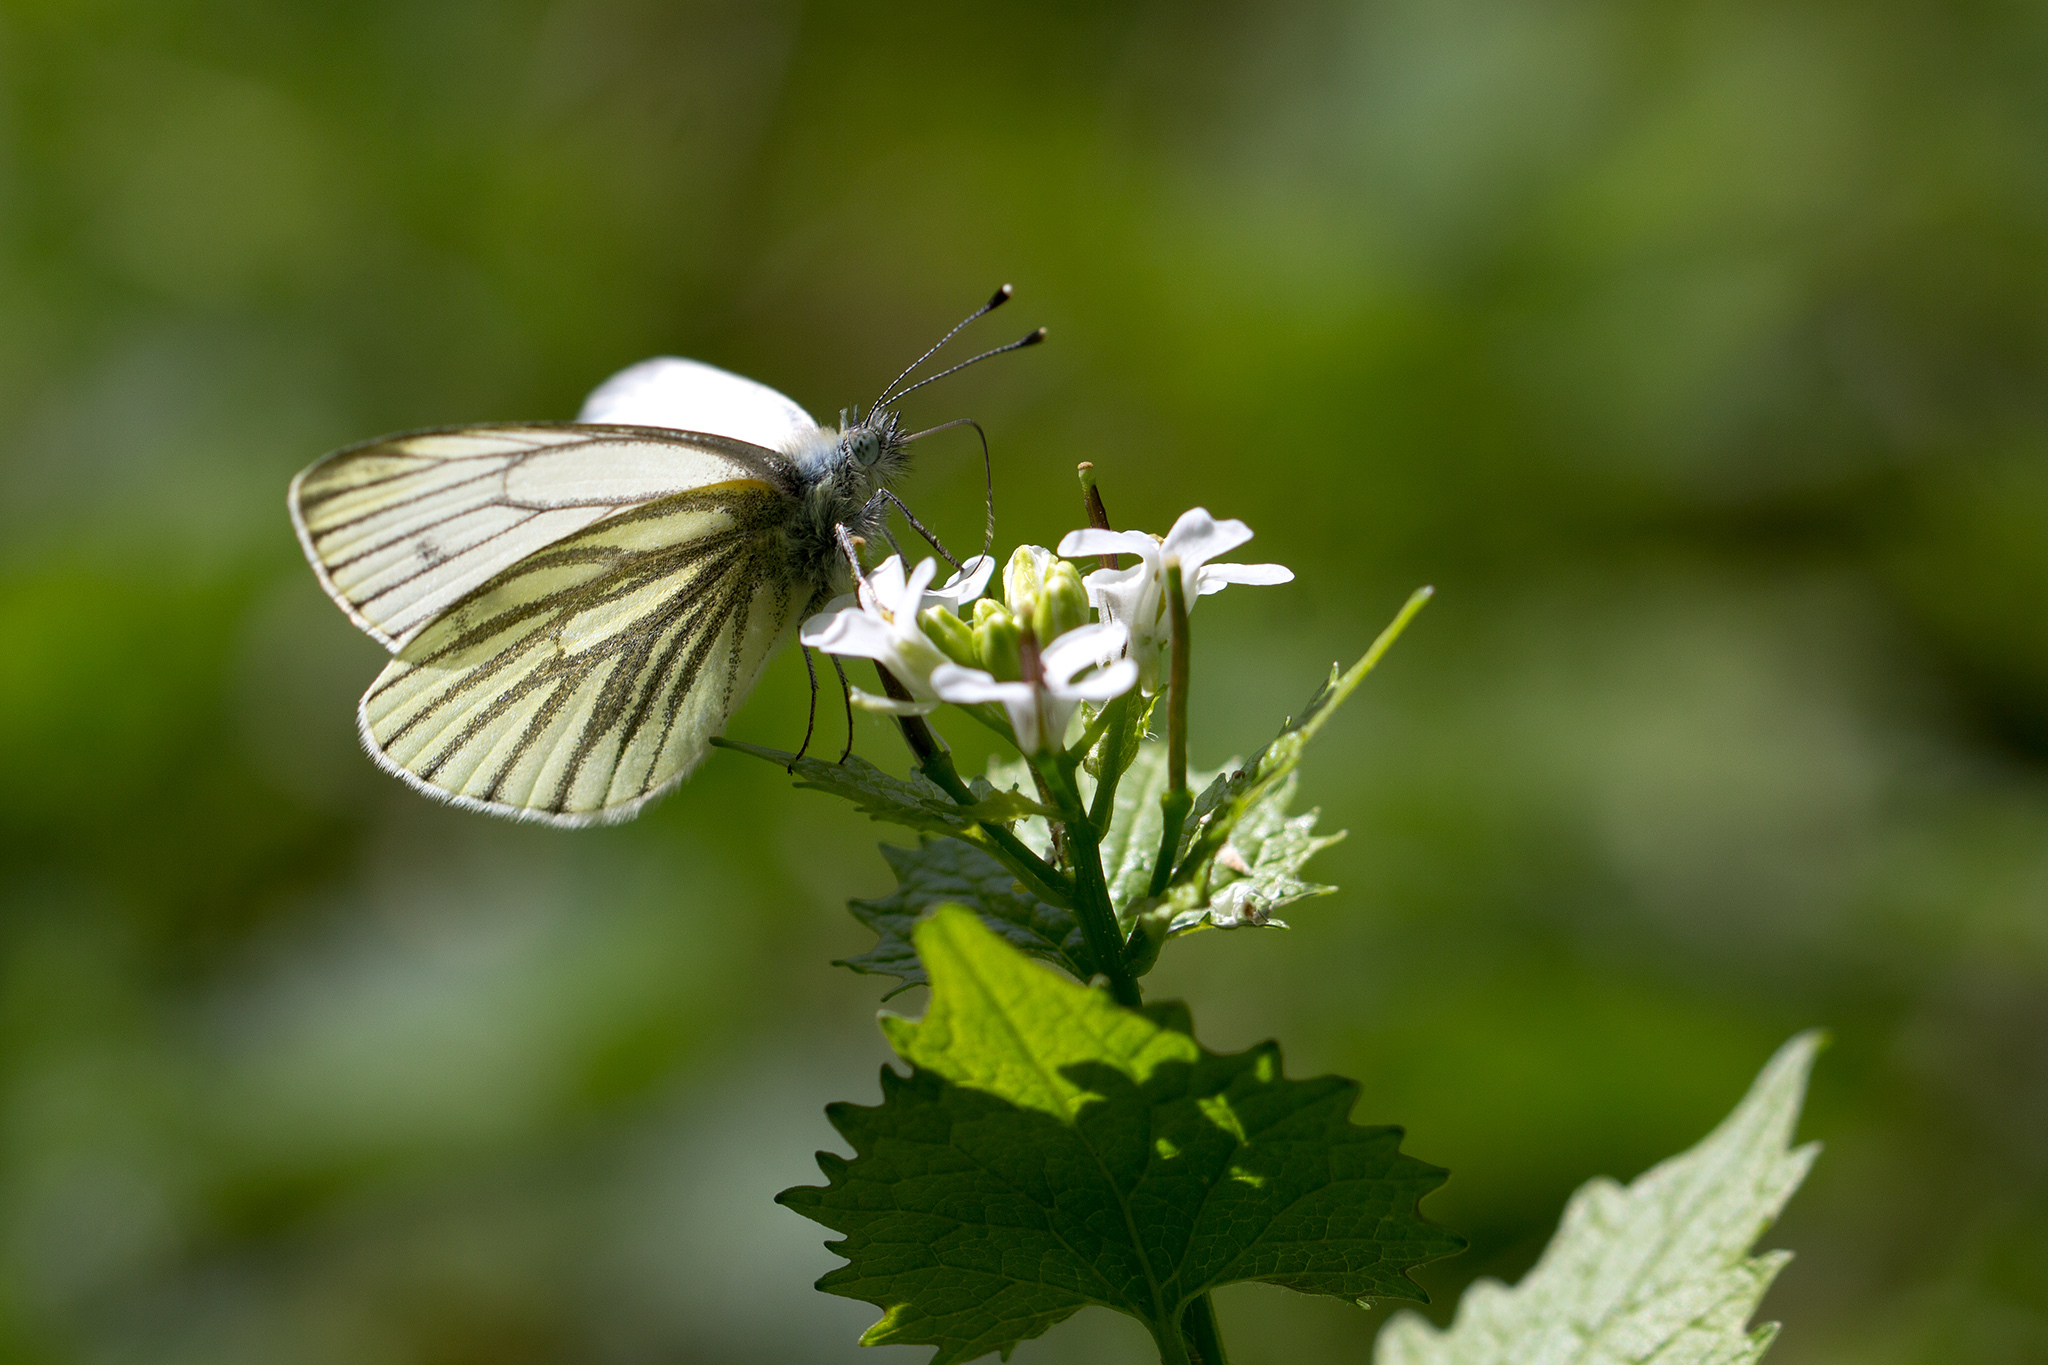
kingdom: Animalia
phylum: Arthropoda
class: Insecta
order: Lepidoptera
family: Pieridae
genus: Pieris
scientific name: Pieris napi
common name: Green-veined white
